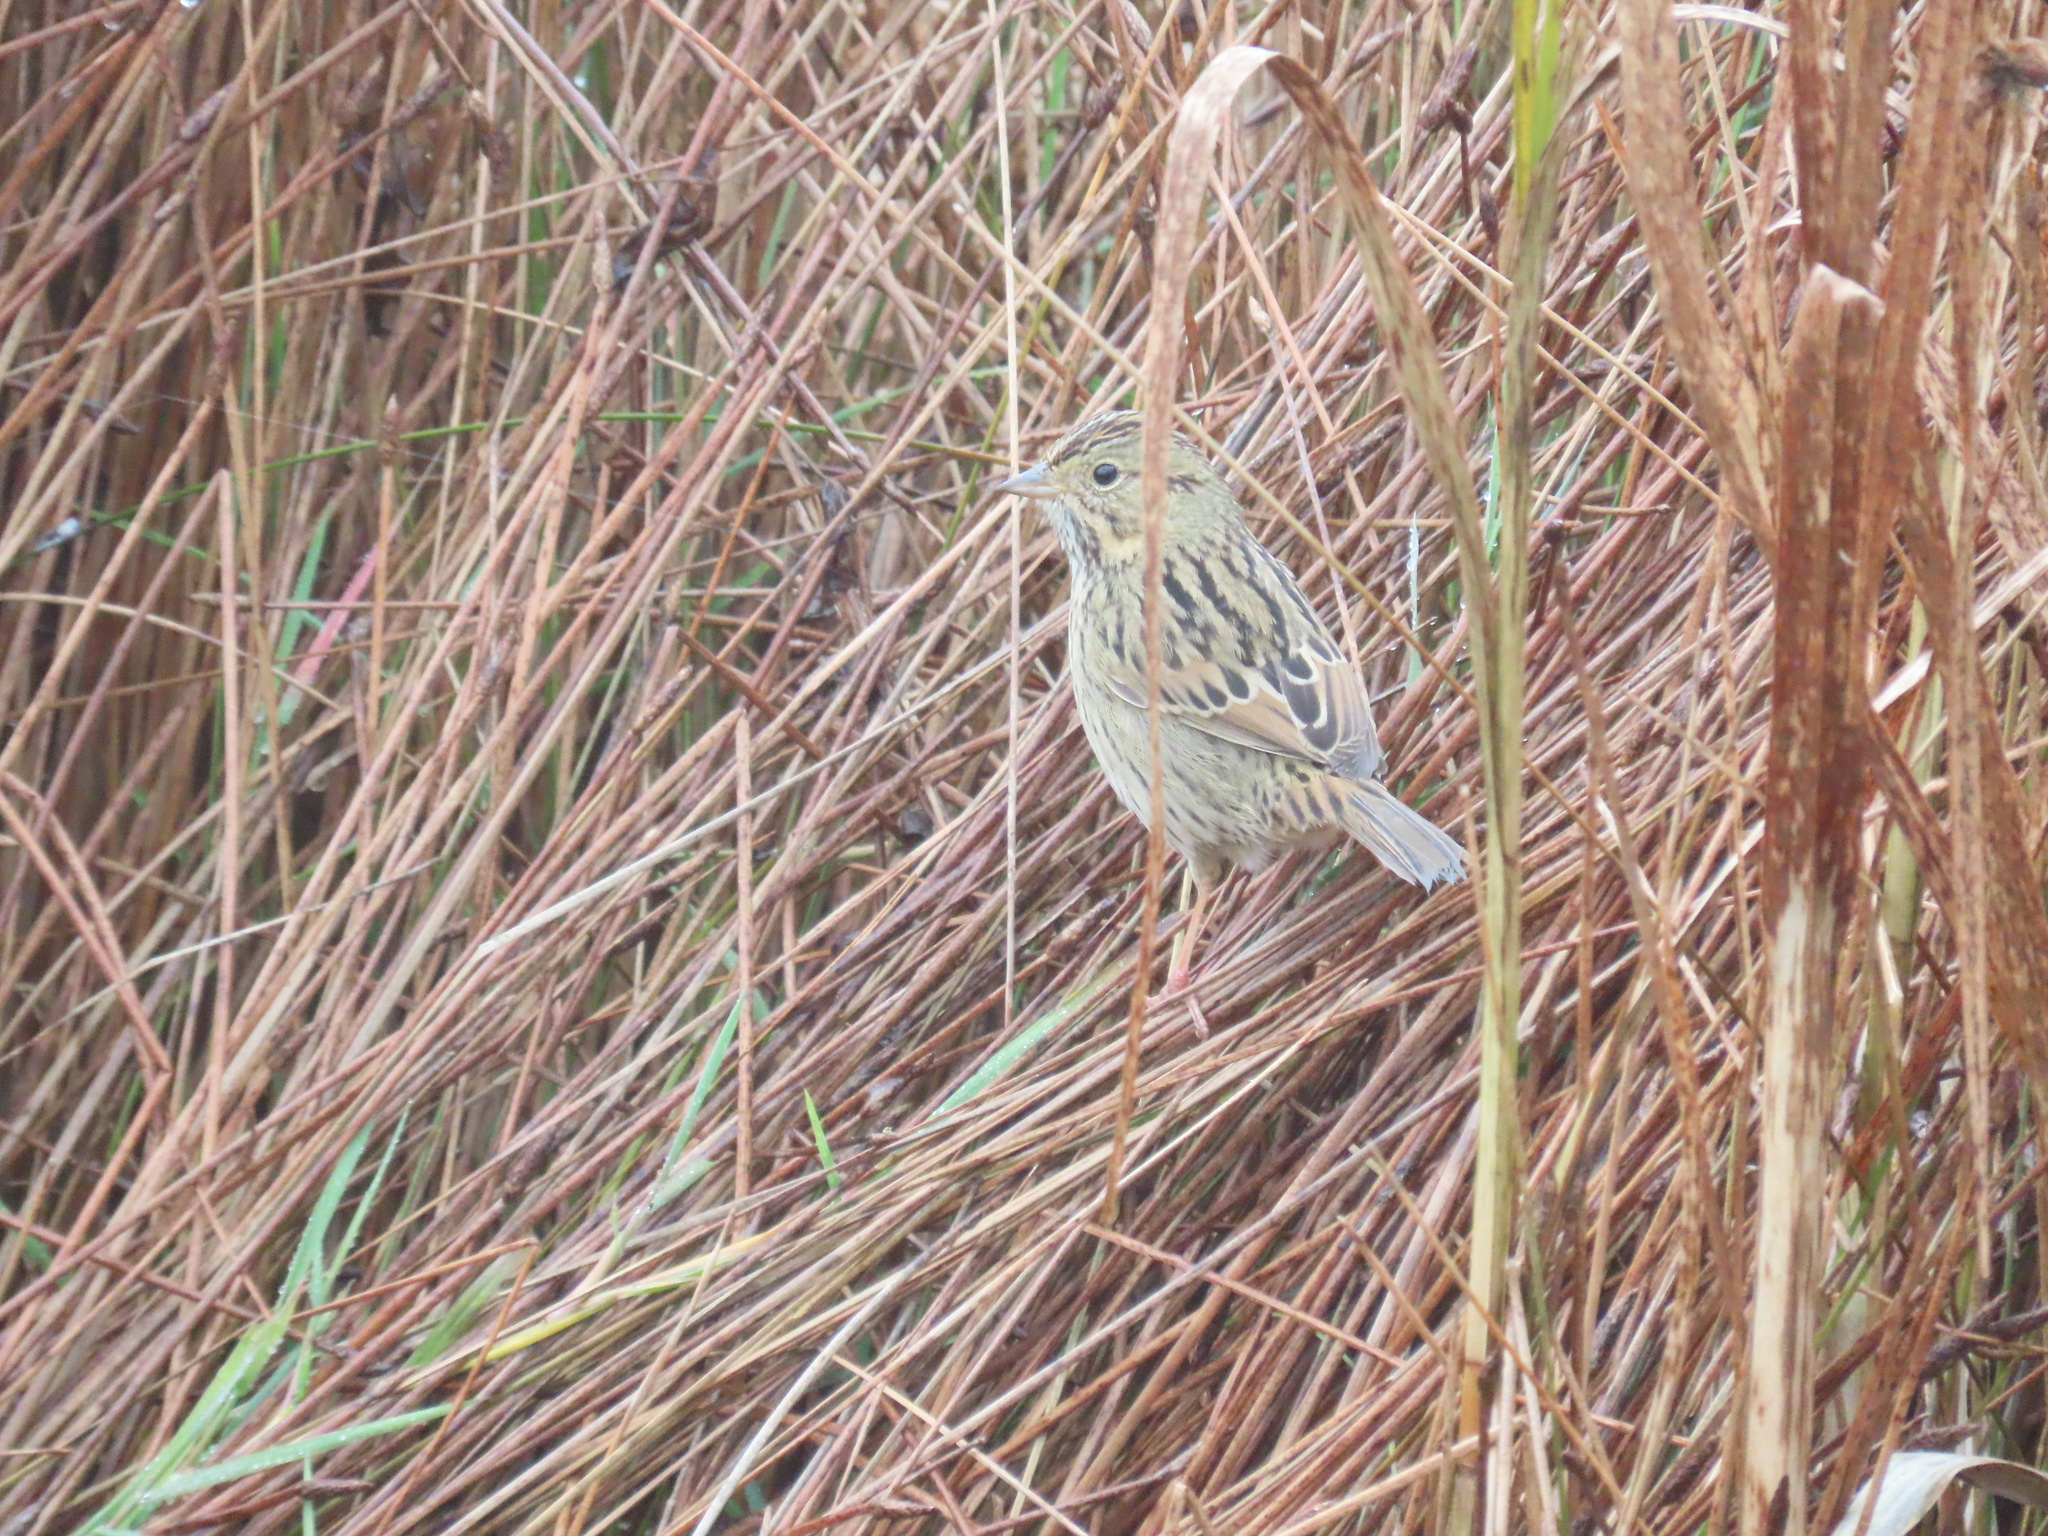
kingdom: Animalia
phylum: Chordata
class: Aves
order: Passeriformes
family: Passerellidae
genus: Melospiza
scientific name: Melospiza lincolnii
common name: Lincoln's sparrow
